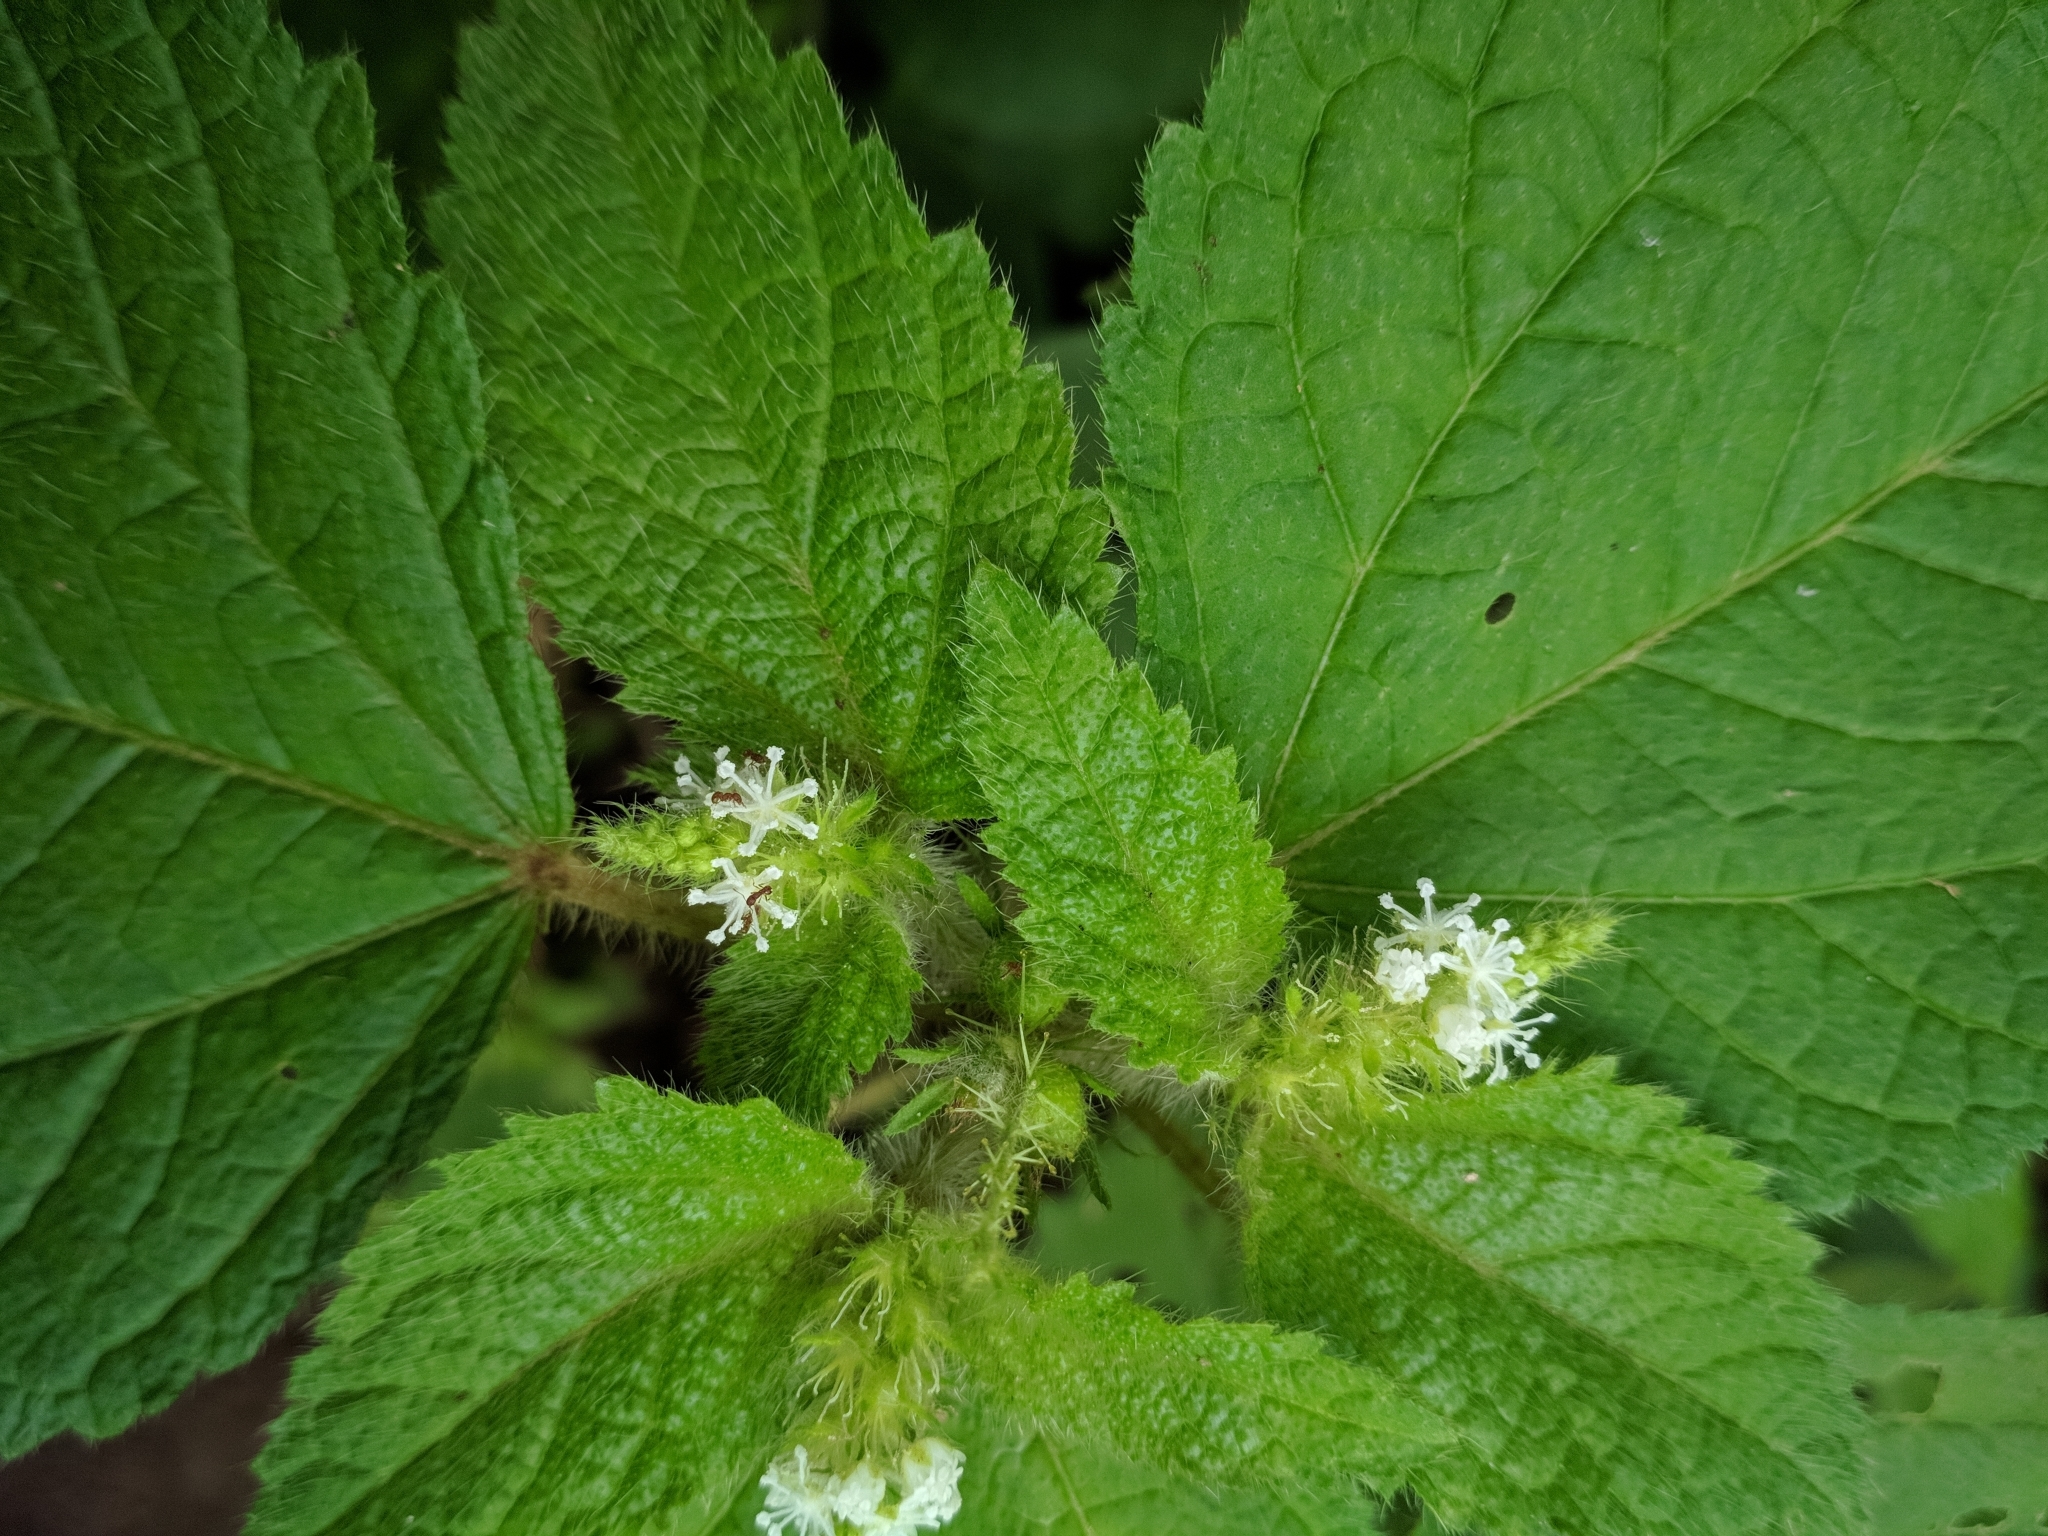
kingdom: Plantae
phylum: Tracheophyta
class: Magnoliopsida
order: Malpighiales
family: Euphorbiaceae
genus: Croton
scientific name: Croton hirtus
